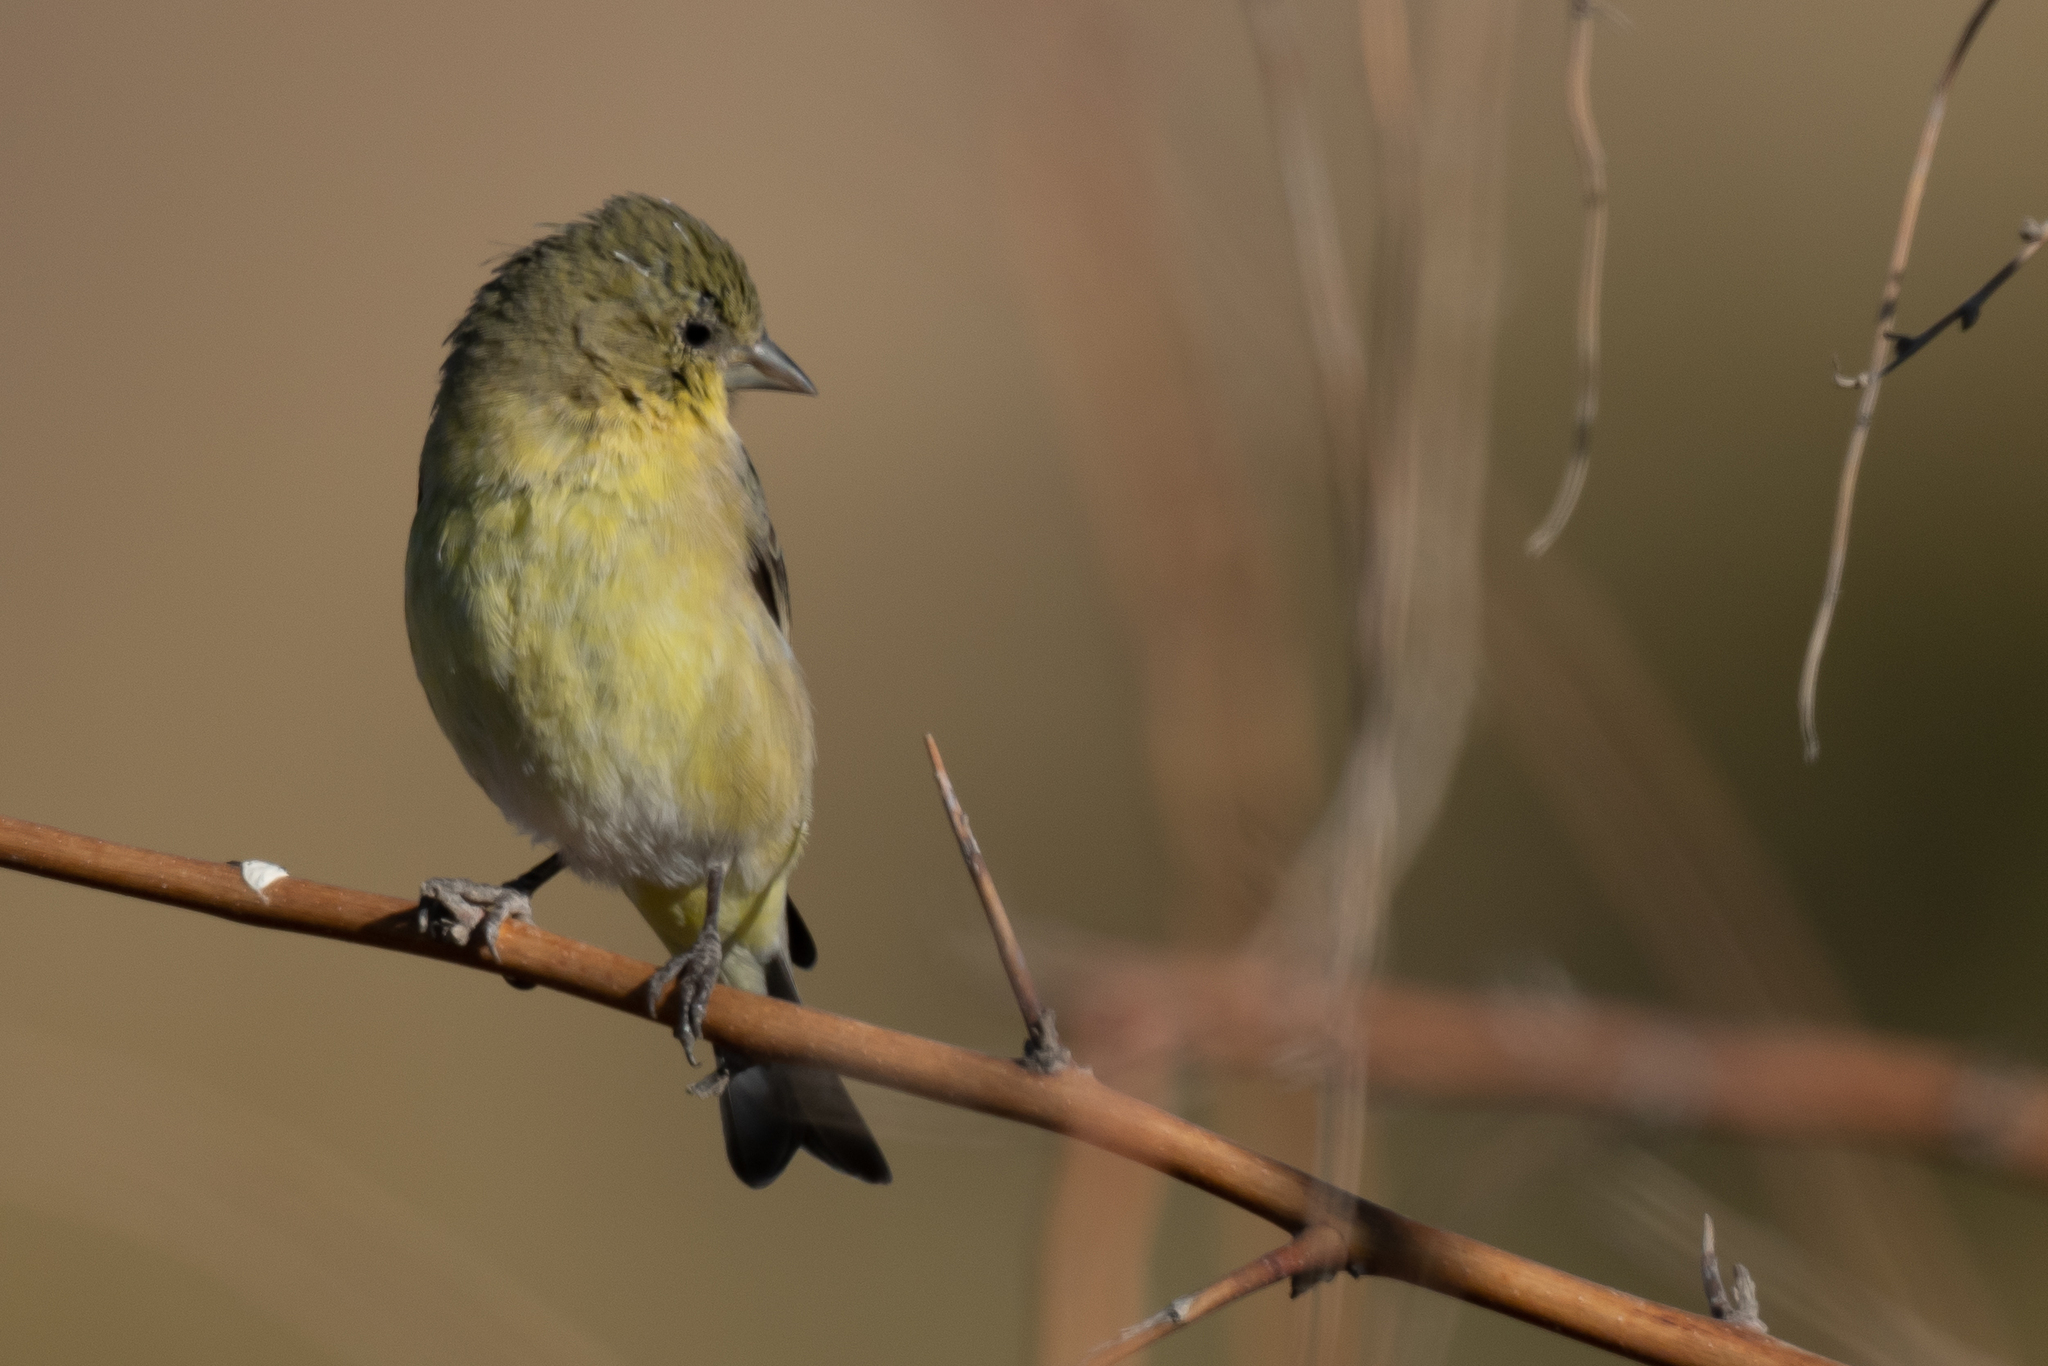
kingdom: Animalia
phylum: Chordata
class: Aves
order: Passeriformes
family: Fringillidae
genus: Spinus
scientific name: Spinus psaltria
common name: Lesser goldfinch
